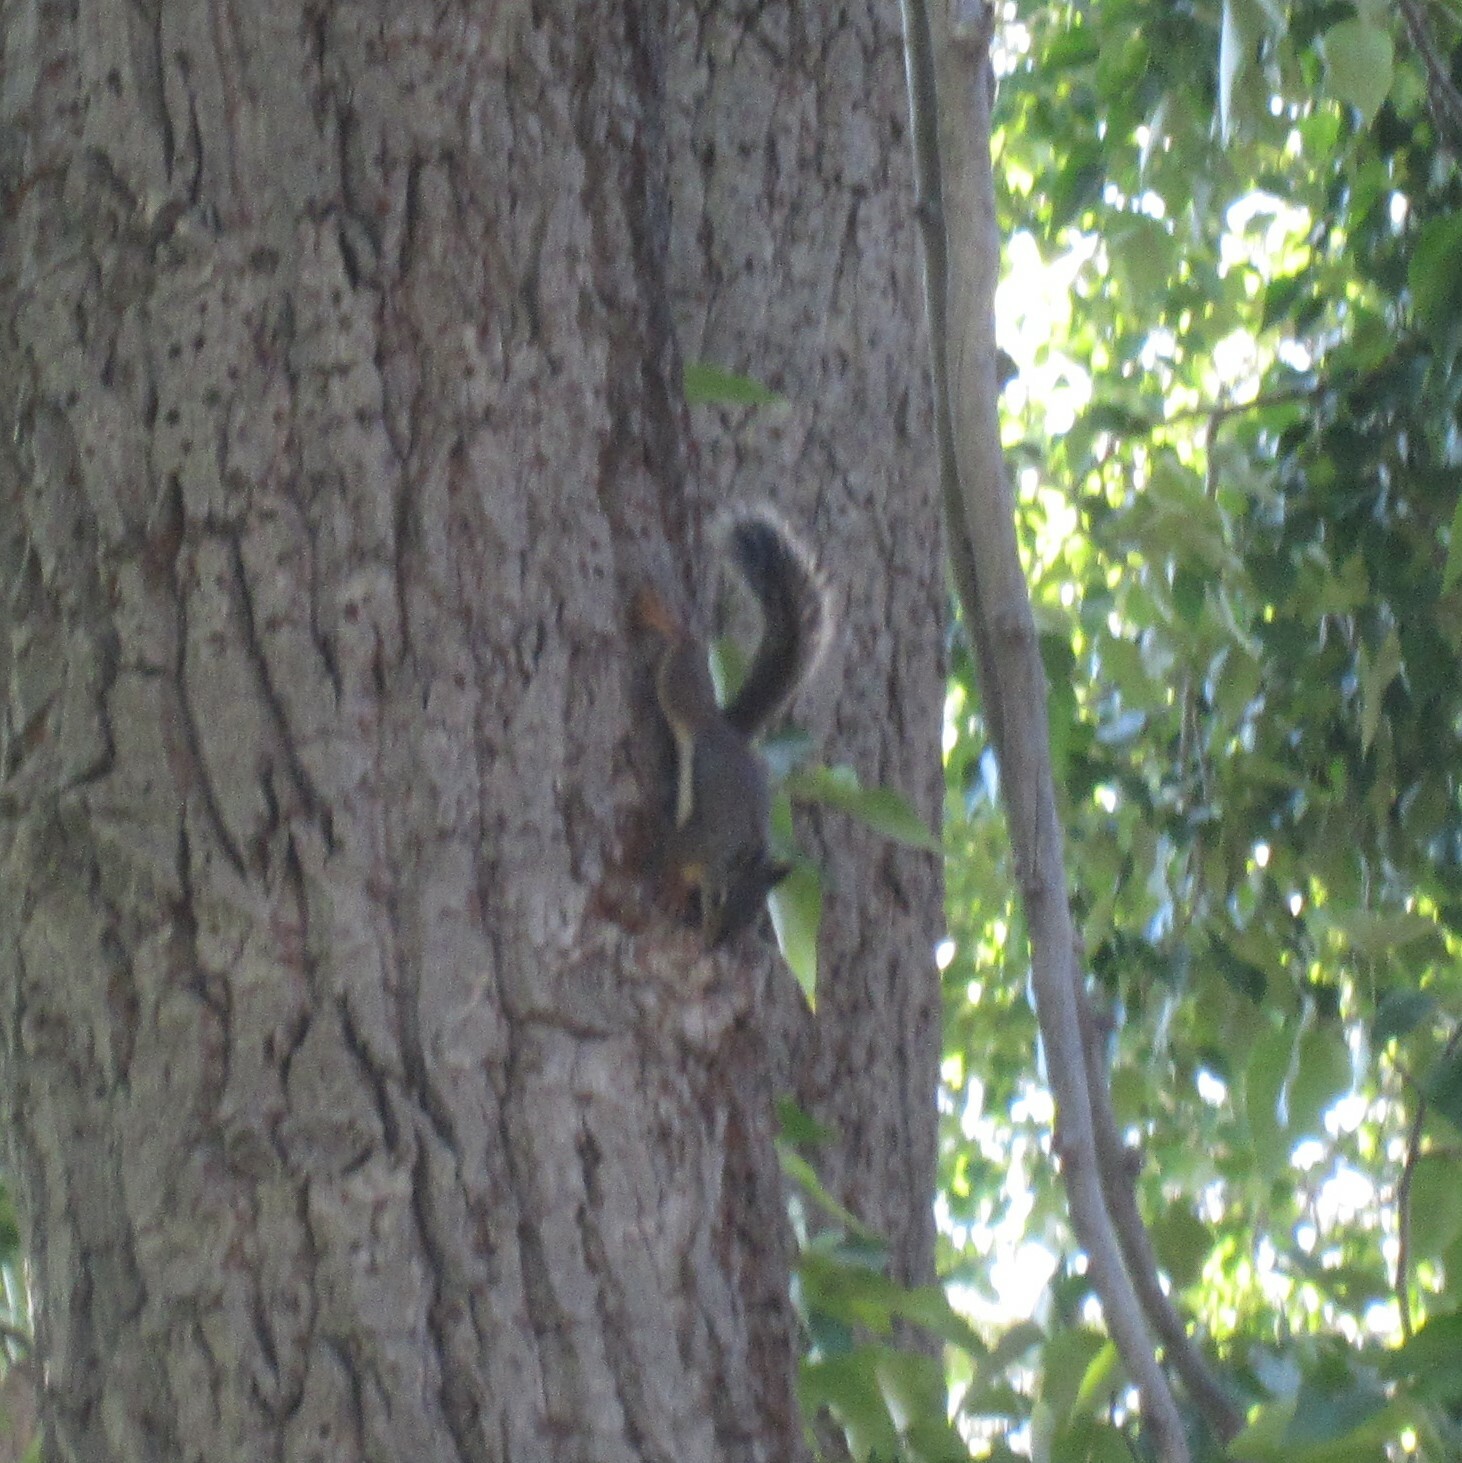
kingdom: Animalia
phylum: Chordata
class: Mammalia
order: Rodentia
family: Sciuridae
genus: Tamiasciurus
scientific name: Tamiasciurus douglasii
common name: Douglas's squirrel
